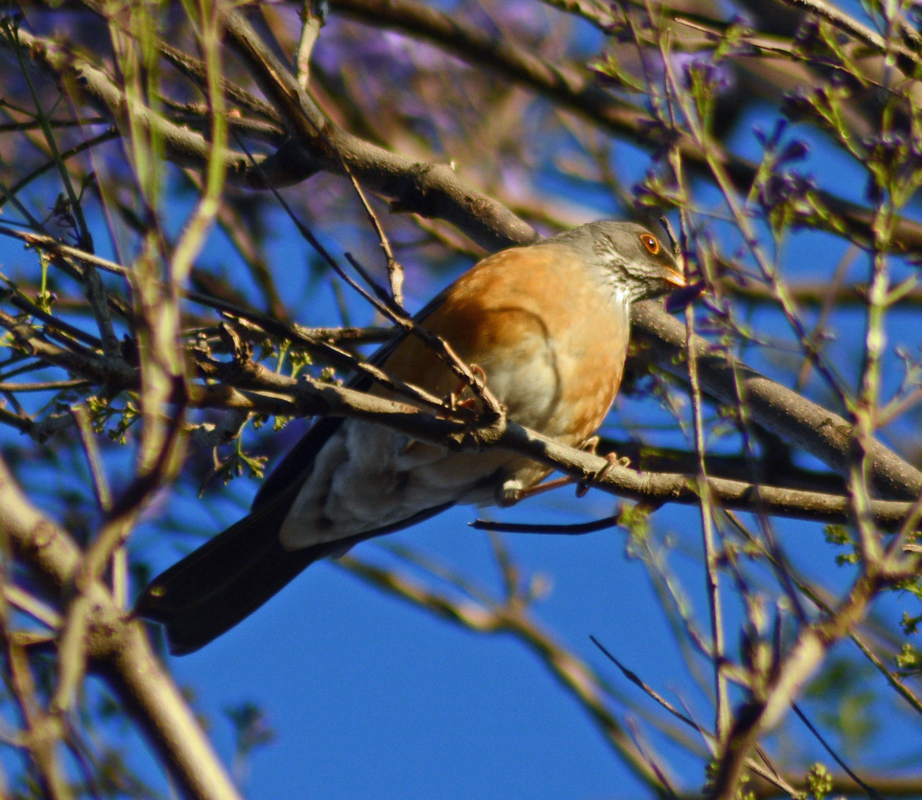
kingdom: Animalia
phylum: Chordata
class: Aves
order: Passeriformes
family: Turdidae
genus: Turdus
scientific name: Turdus rufopalliatus
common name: Rufous-backed robin
